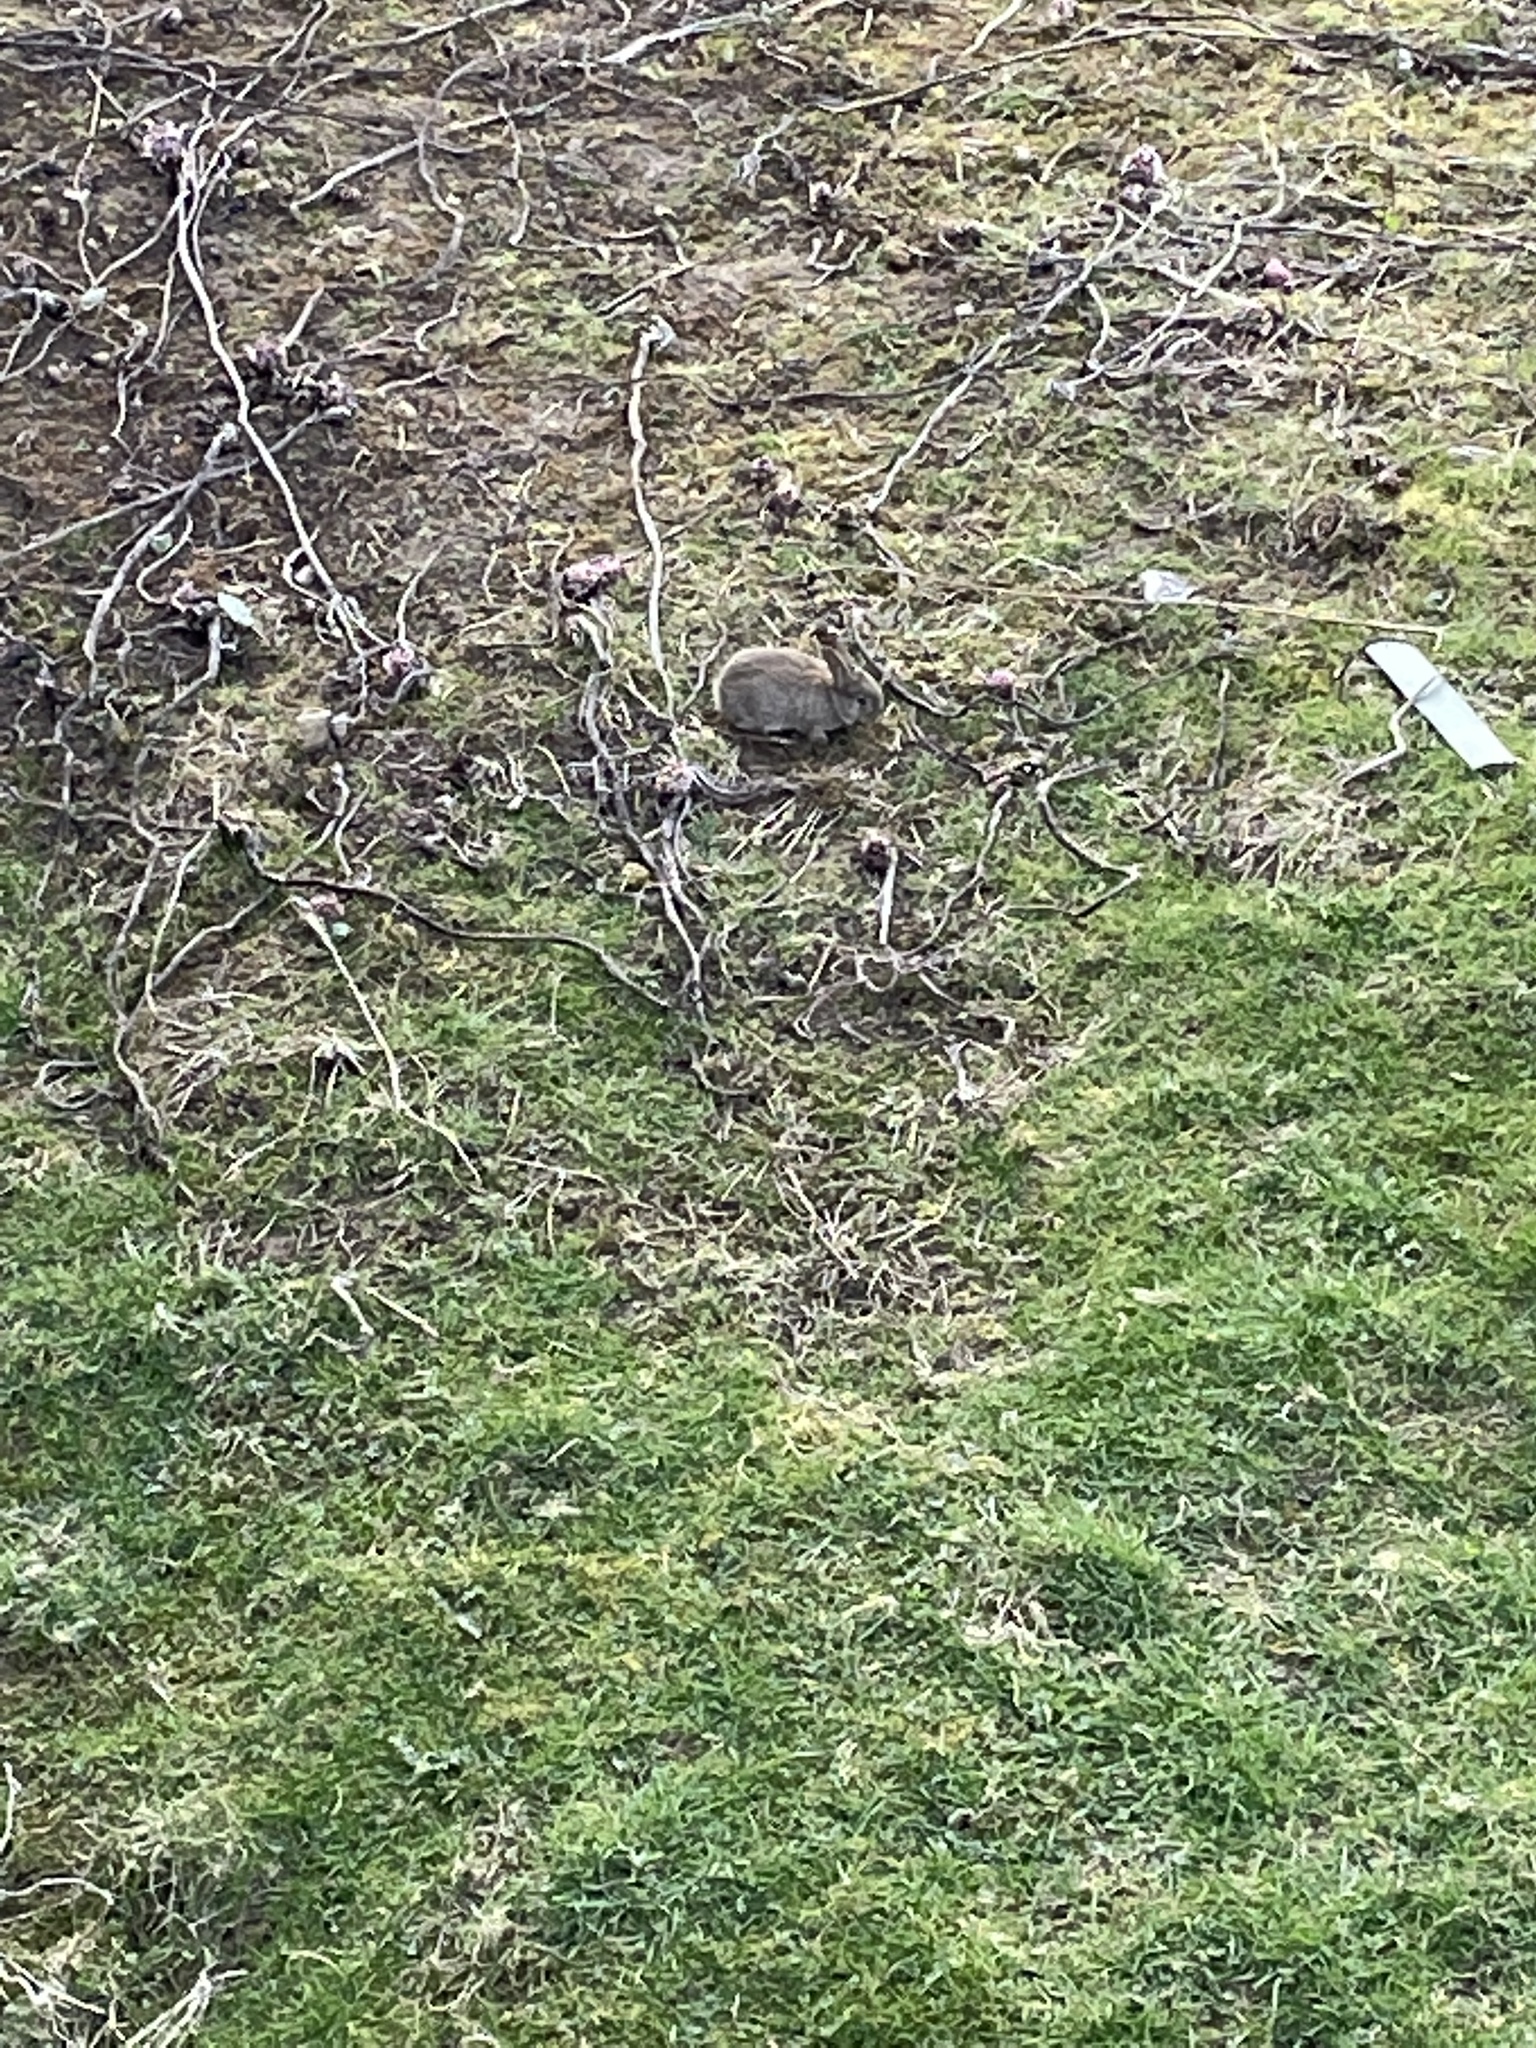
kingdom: Animalia
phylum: Chordata
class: Mammalia
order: Lagomorpha
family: Leporidae
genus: Oryctolagus
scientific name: Oryctolagus cuniculus
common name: European rabbit
